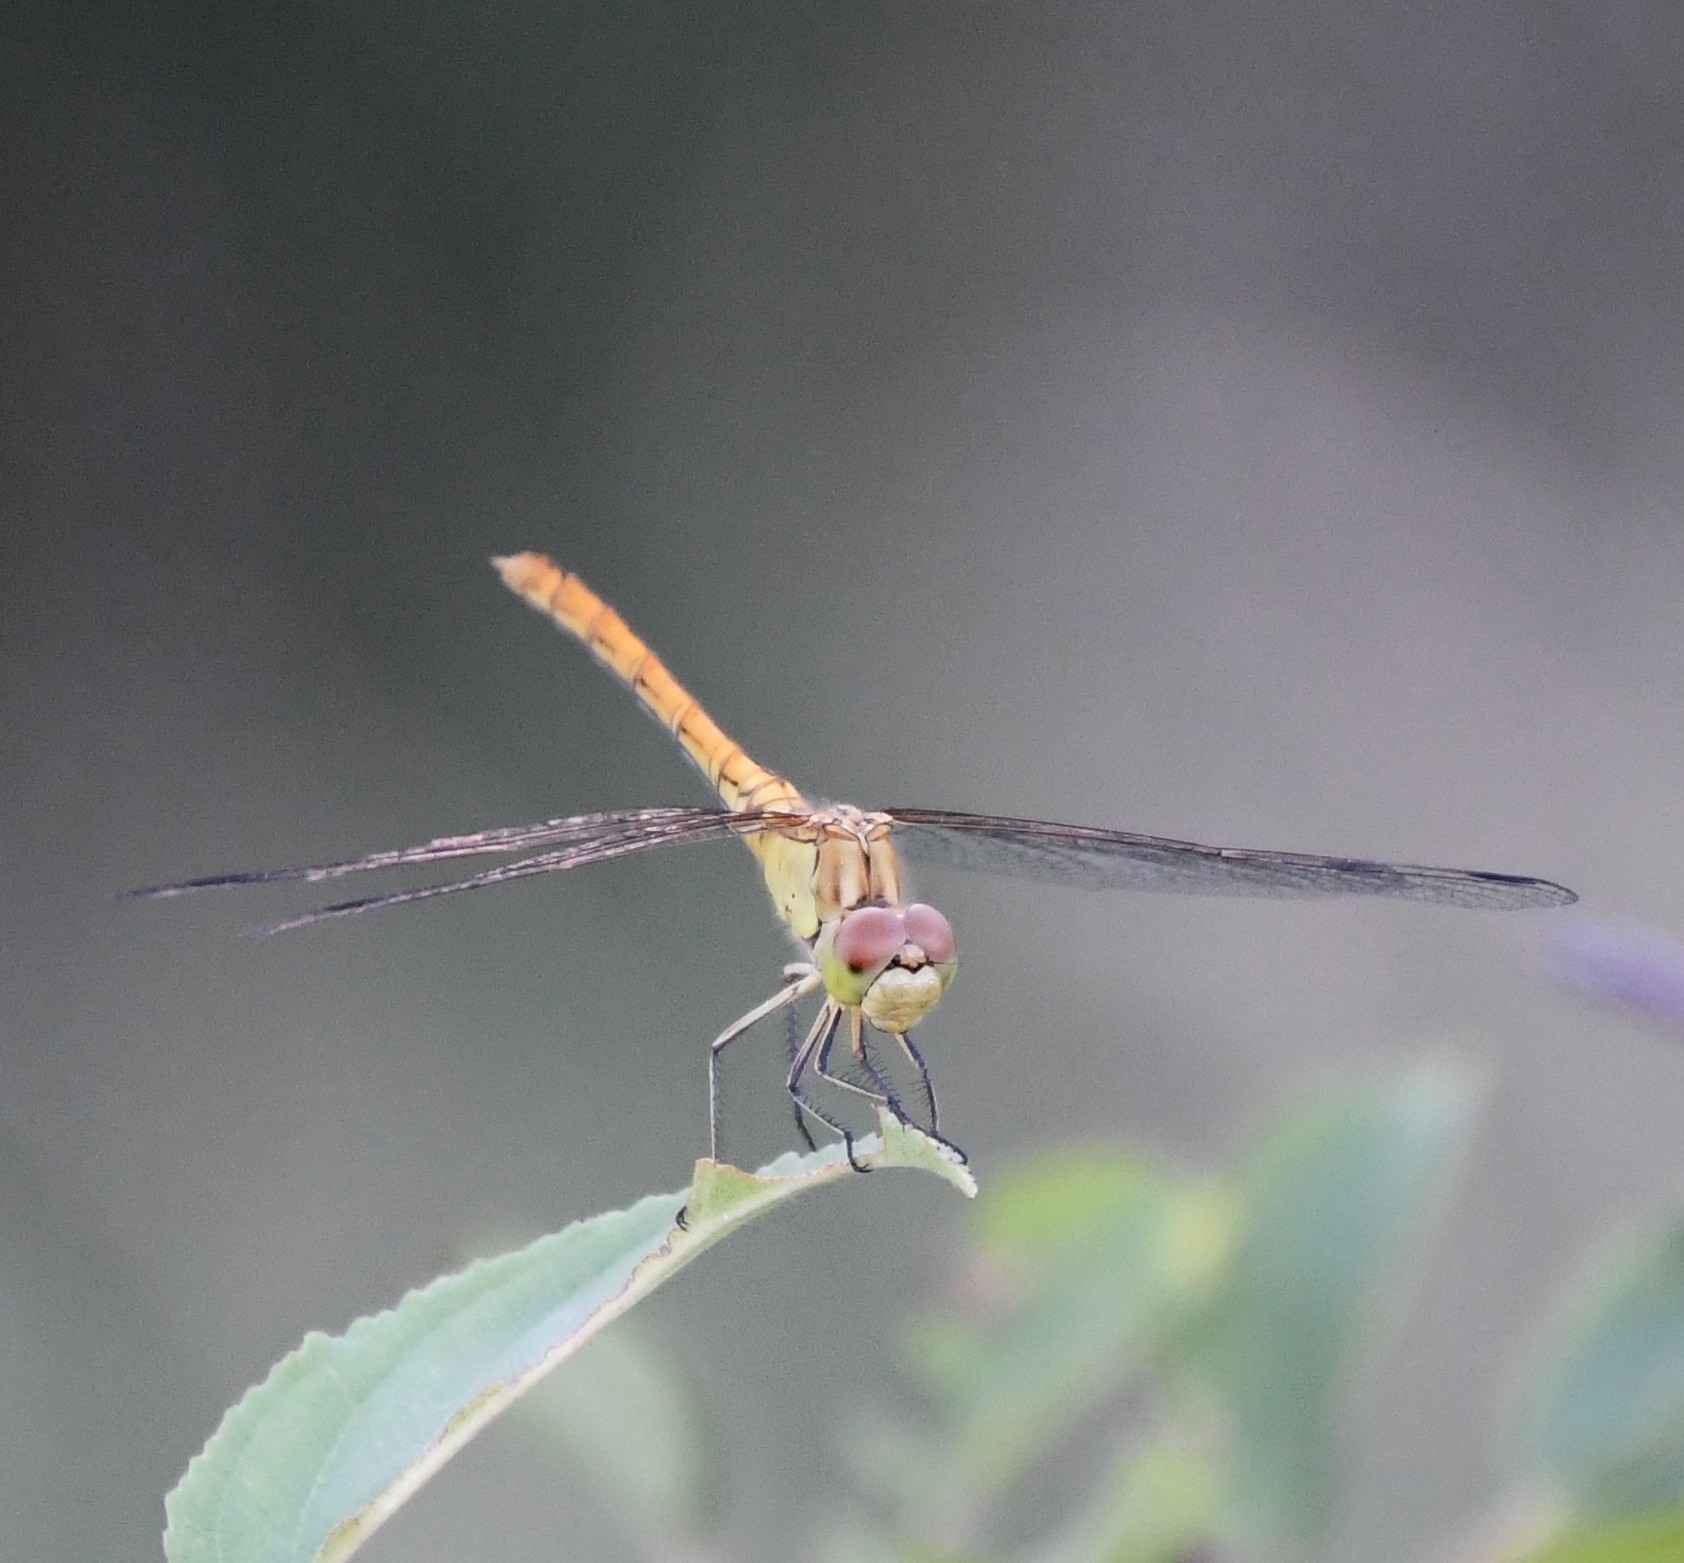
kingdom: Animalia
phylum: Arthropoda
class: Insecta
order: Odonata
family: Libellulidae
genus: Sympetrum
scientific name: Sympetrum meridionale
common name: Southern darter
